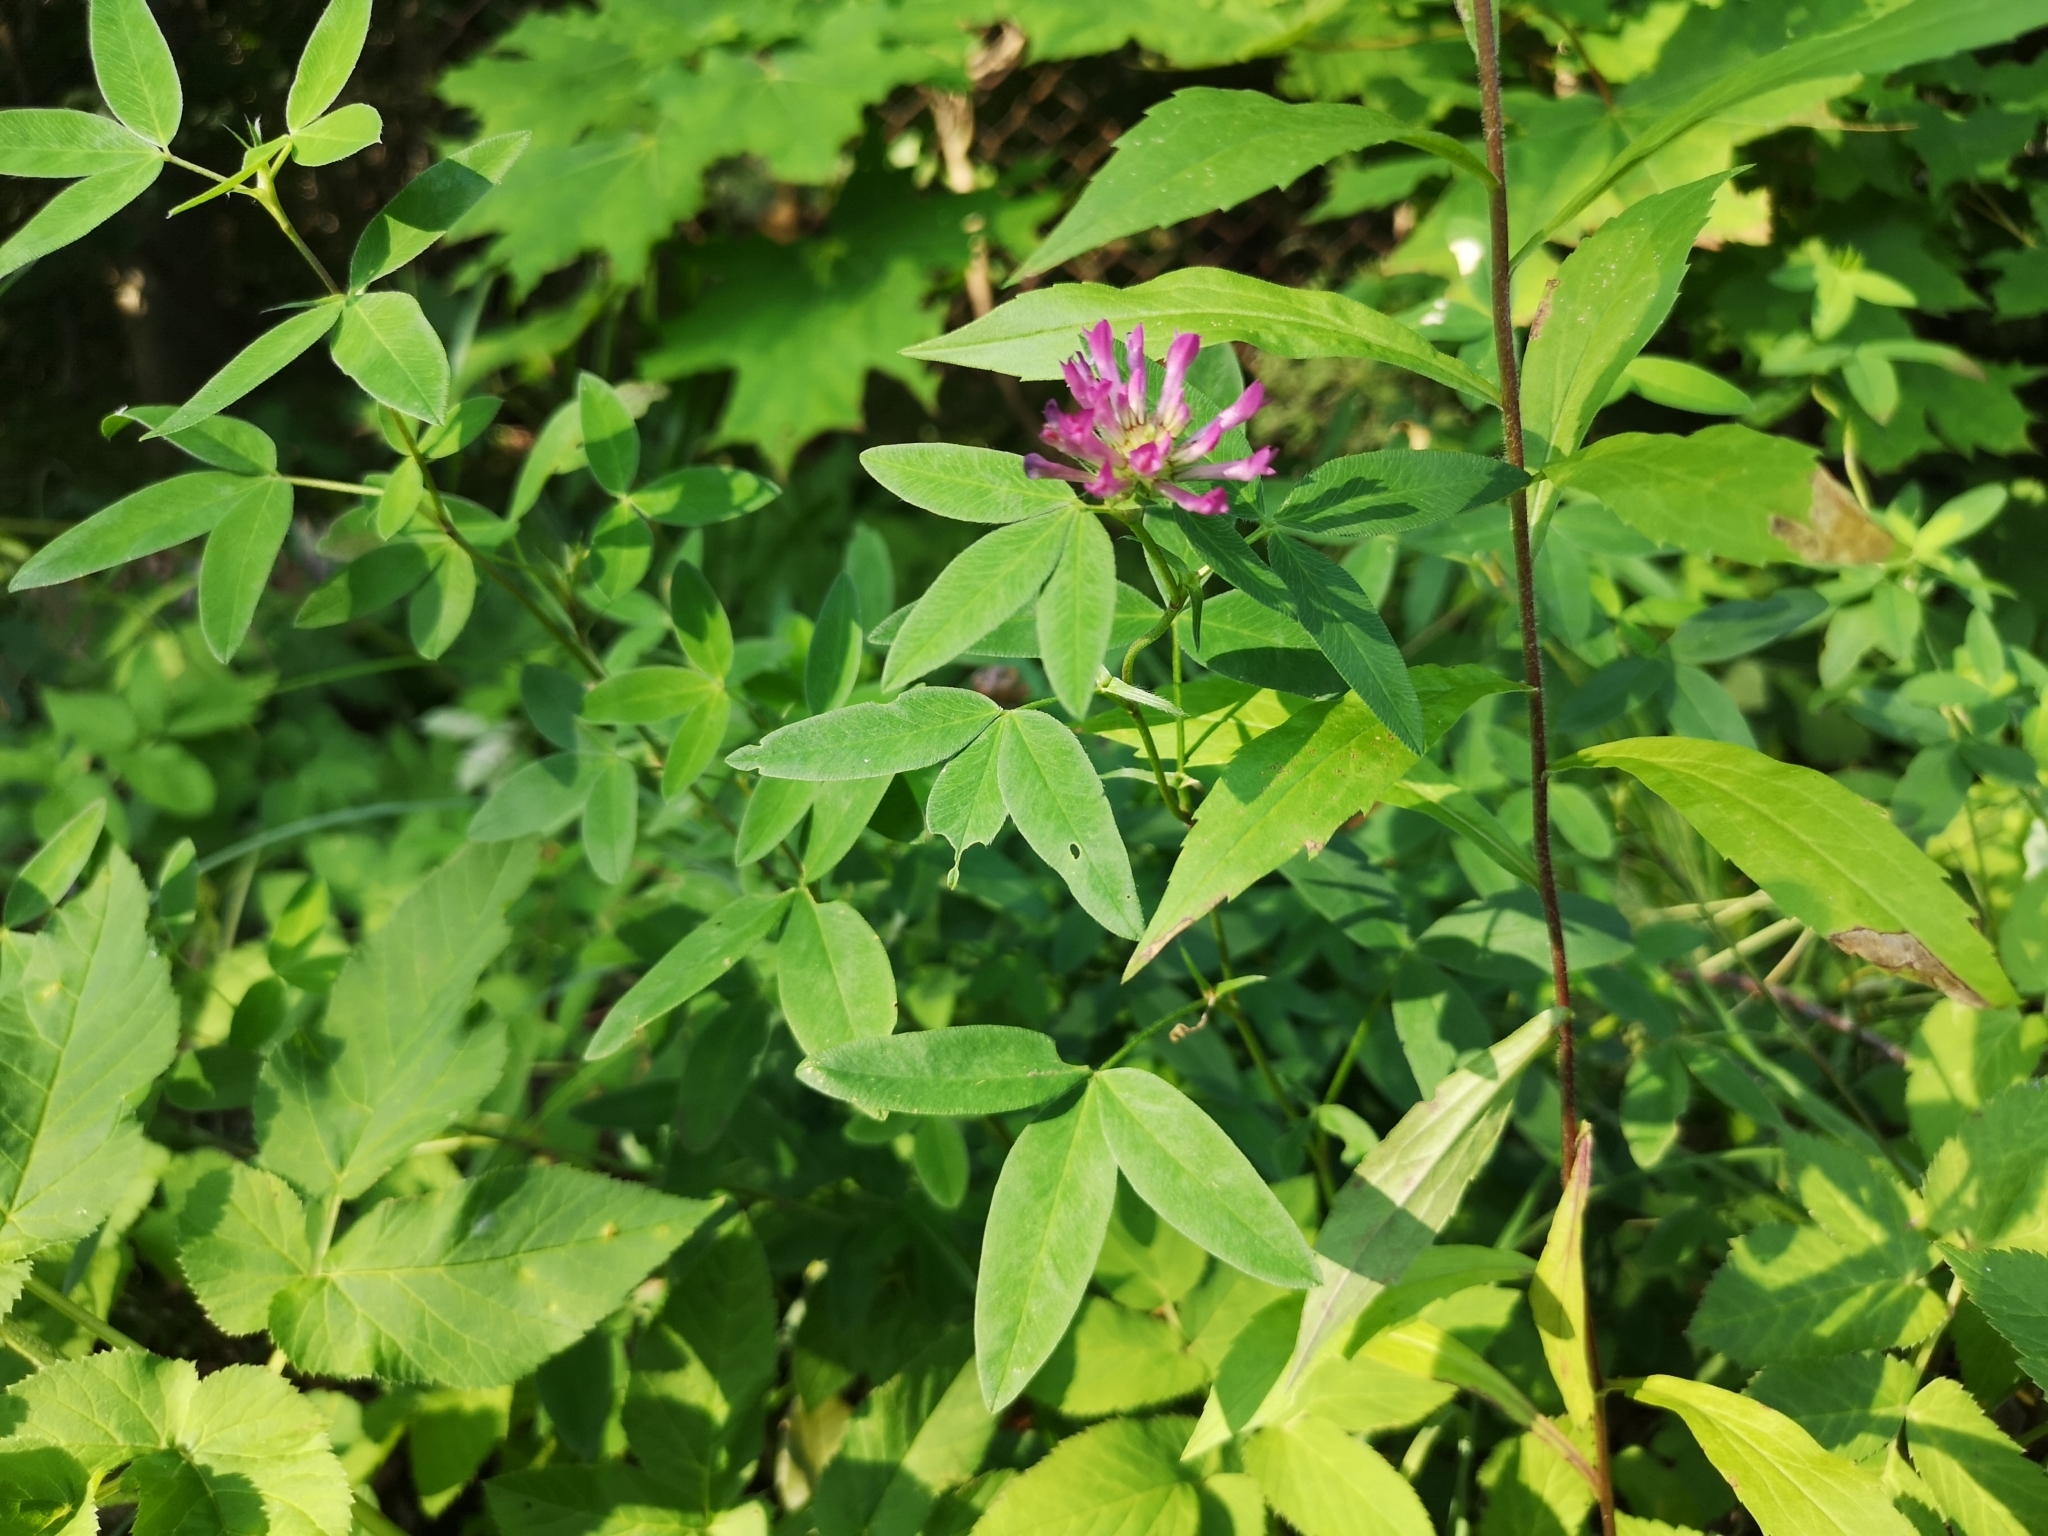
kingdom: Plantae
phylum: Tracheophyta
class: Magnoliopsida
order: Fabales
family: Fabaceae
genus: Trifolium
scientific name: Trifolium medium
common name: Zigzag clover
